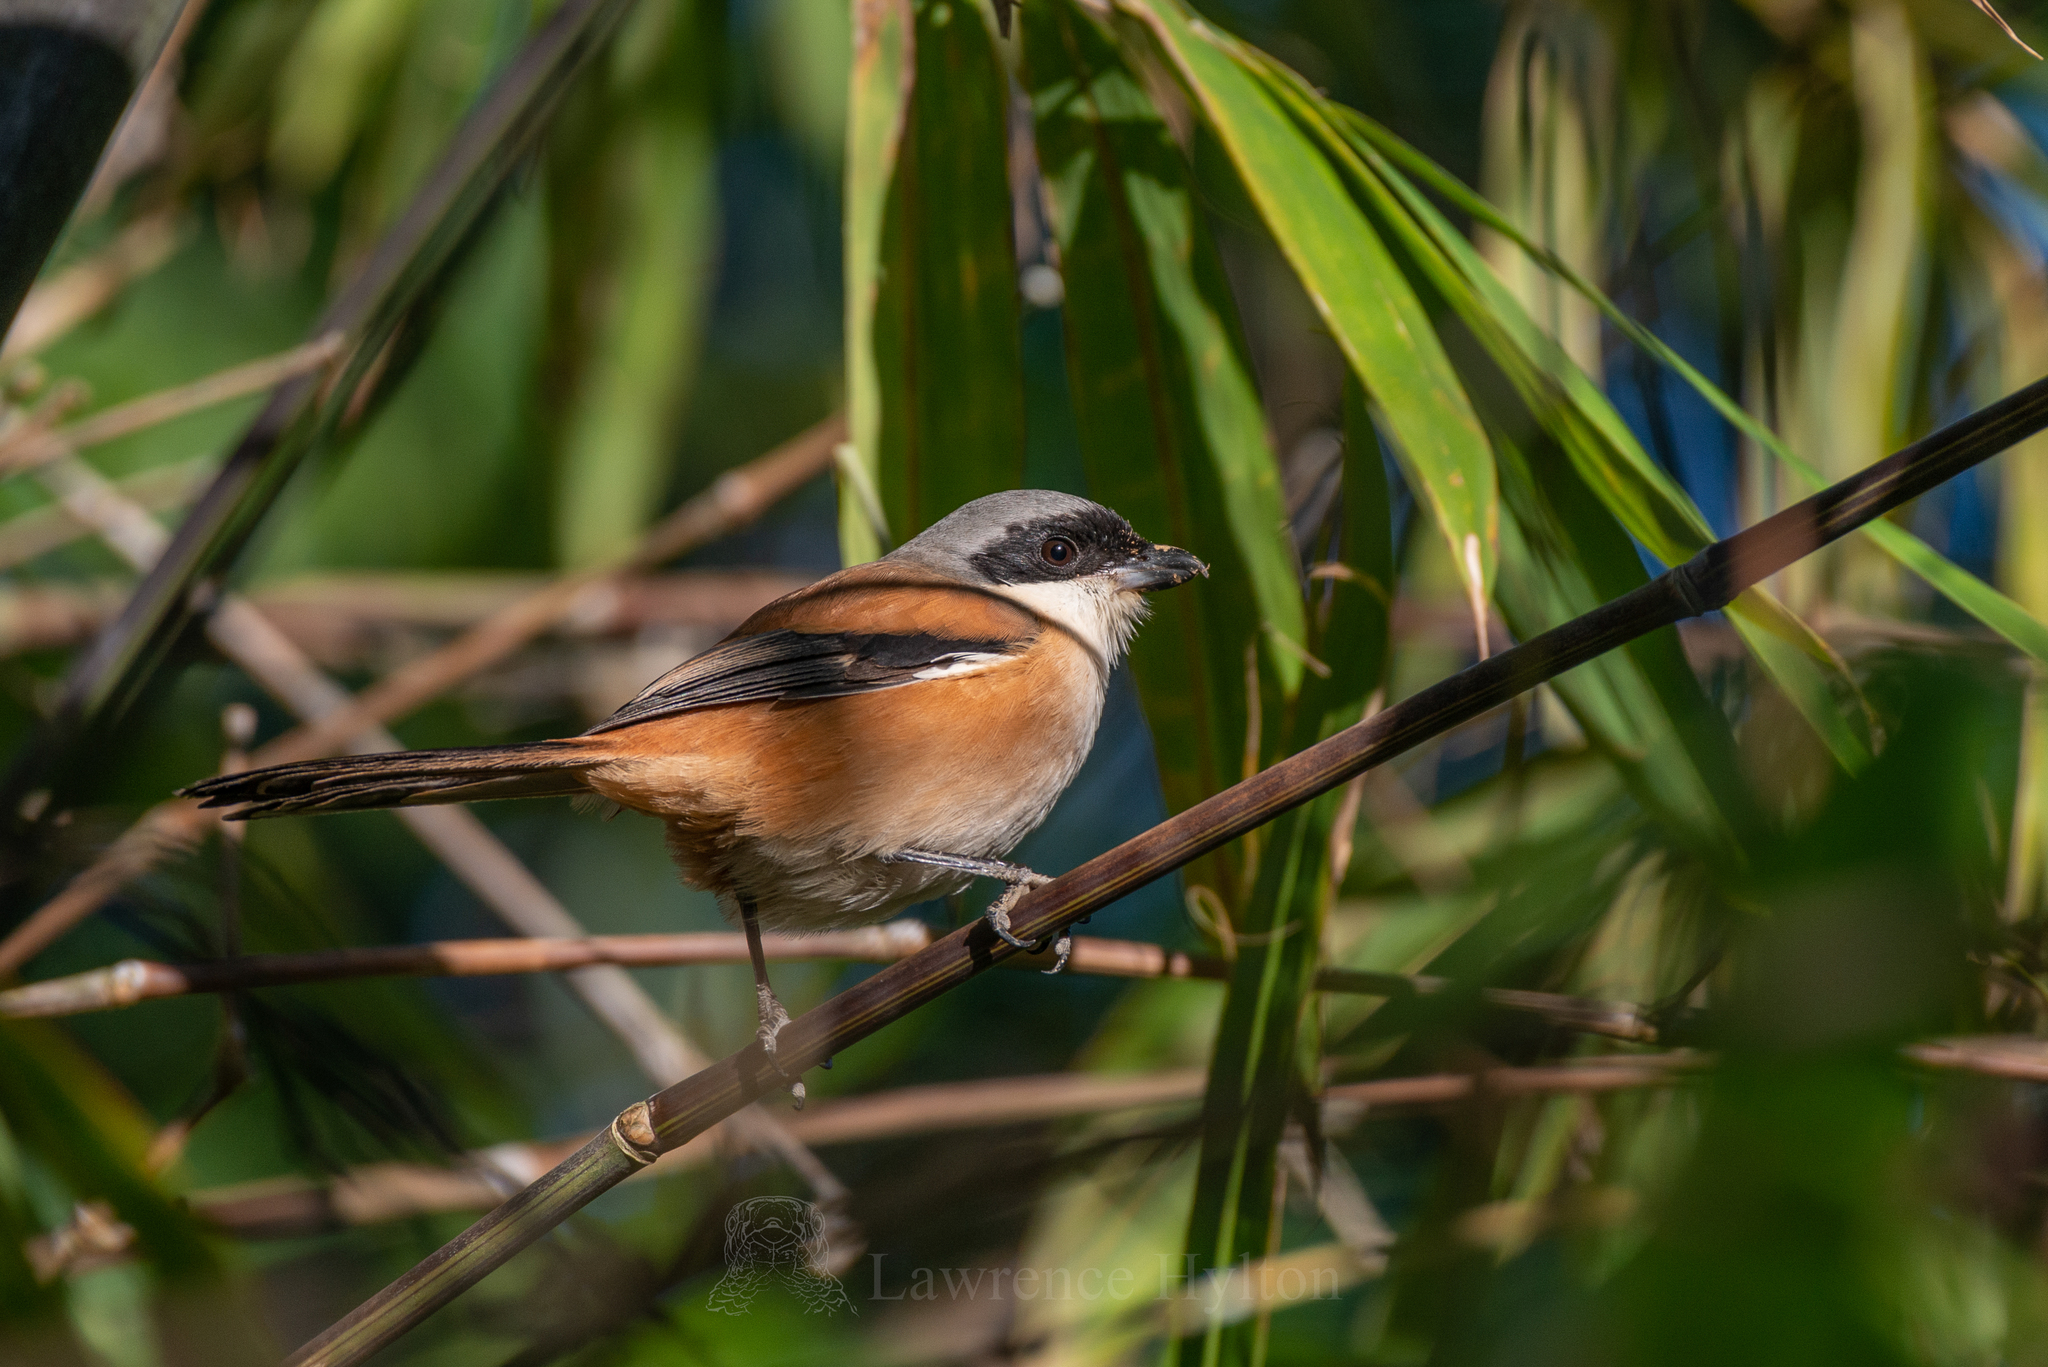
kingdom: Animalia
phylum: Chordata
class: Aves
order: Passeriformes
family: Laniidae
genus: Lanius
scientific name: Lanius schach
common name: Long-tailed shrike
